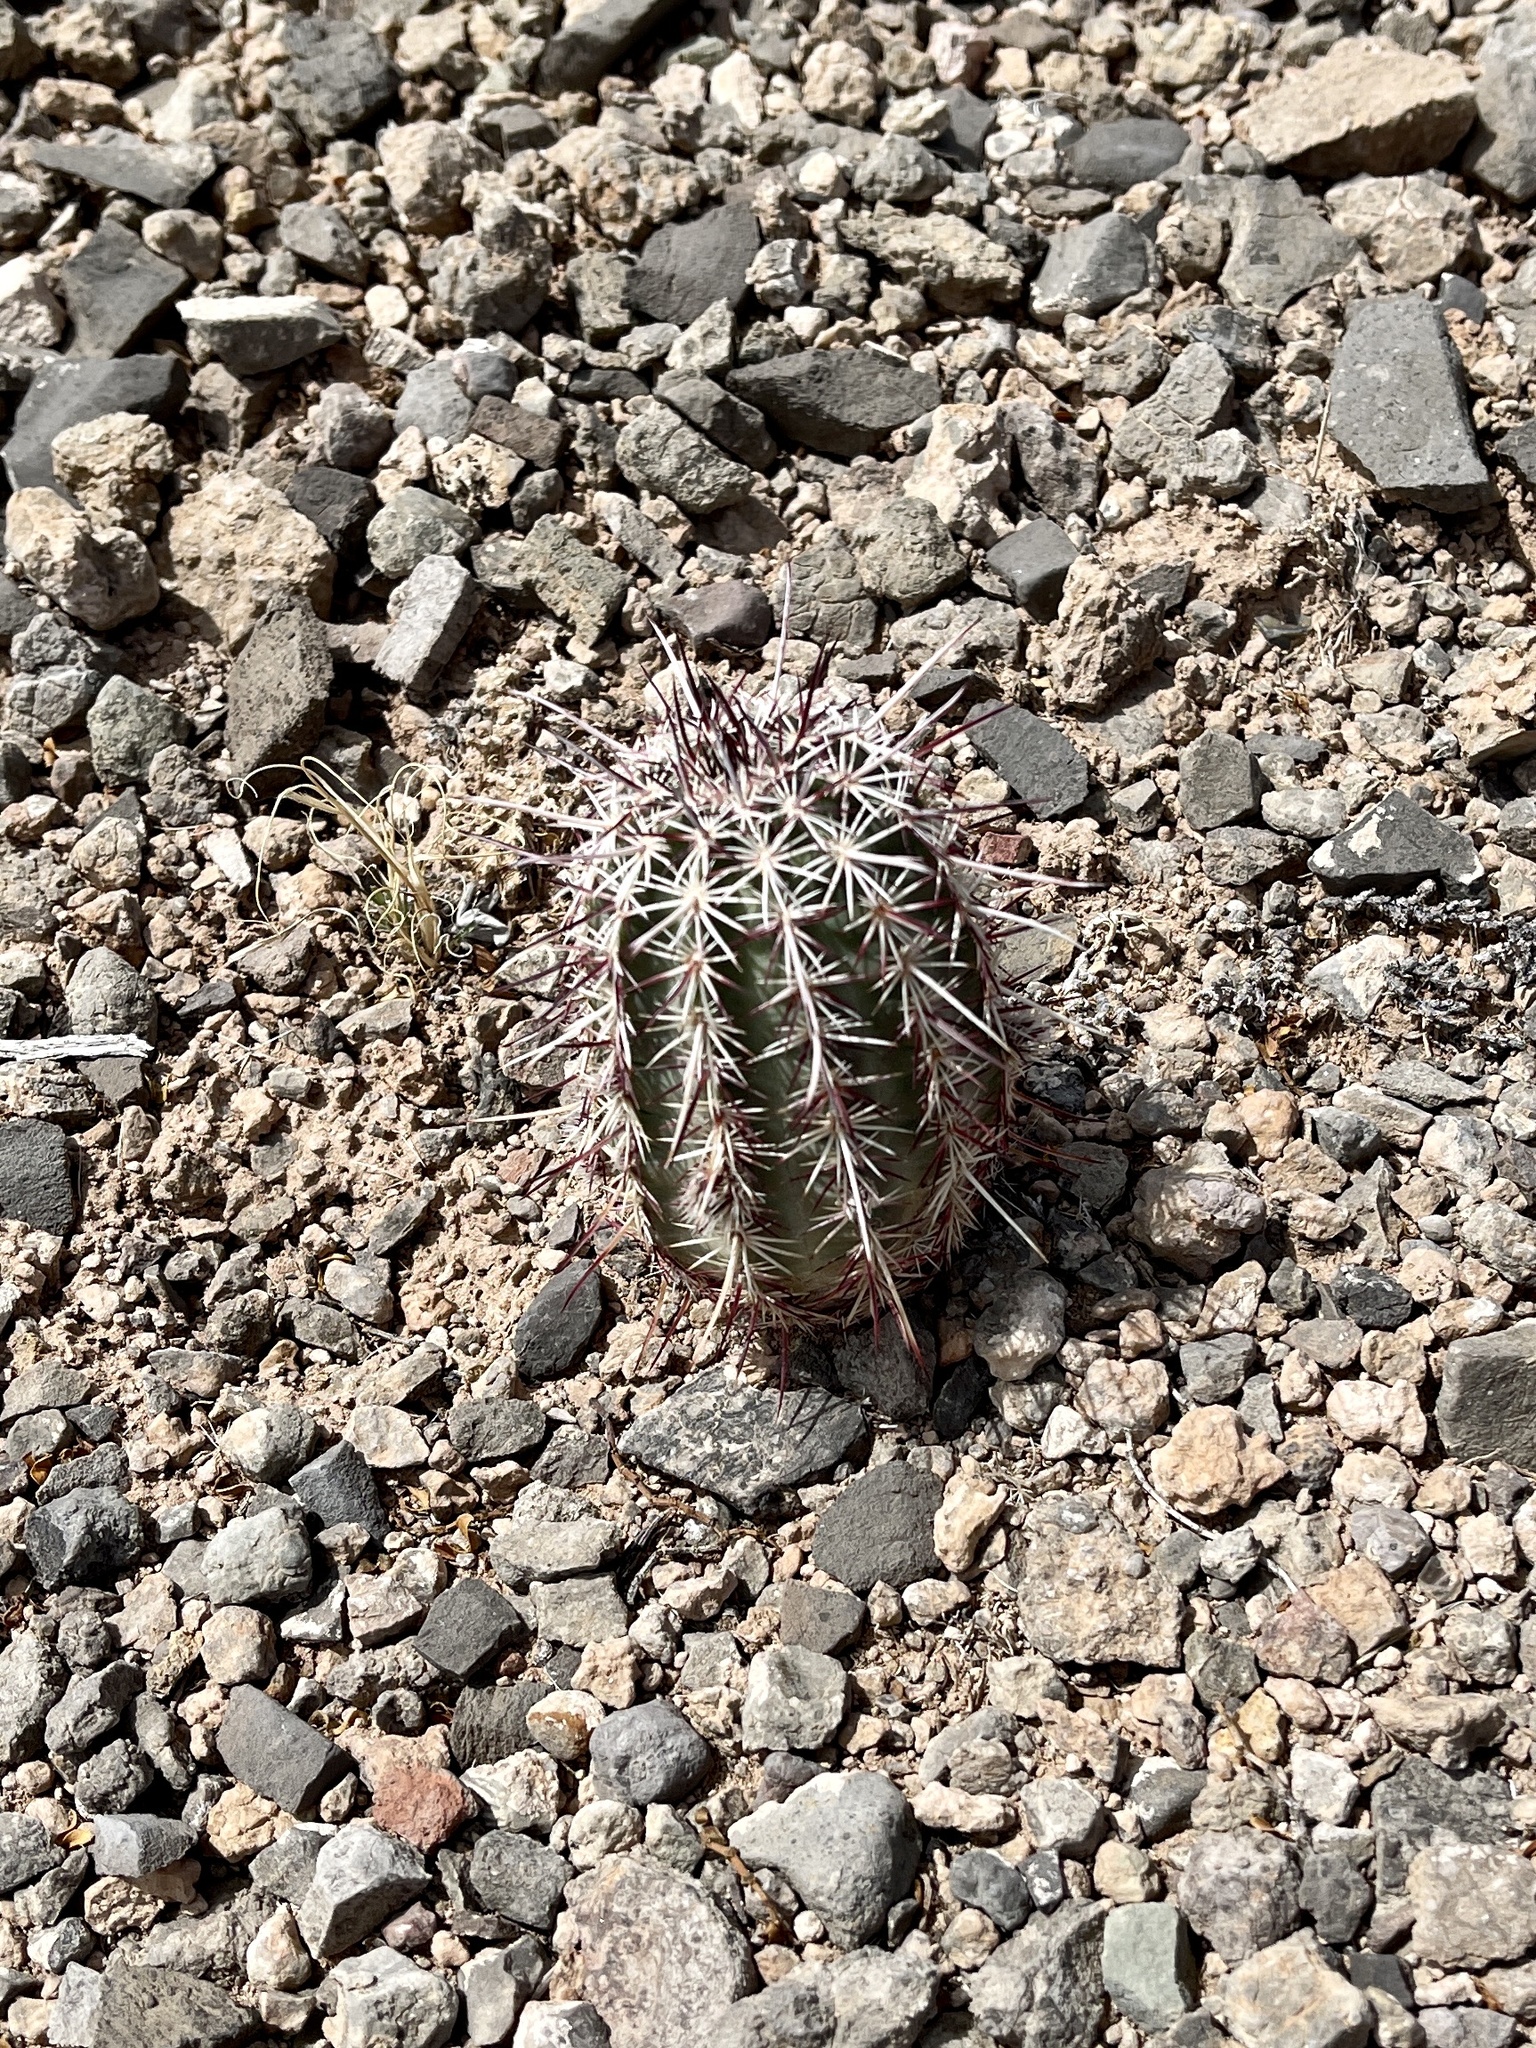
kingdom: Plantae
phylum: Tracheophyta
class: Magnoliopsida
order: Caryophyllales
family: Cactaceae
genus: Echinocereus
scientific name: Echinocereus viridiflorus
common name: Nylon hedgehog cactus
